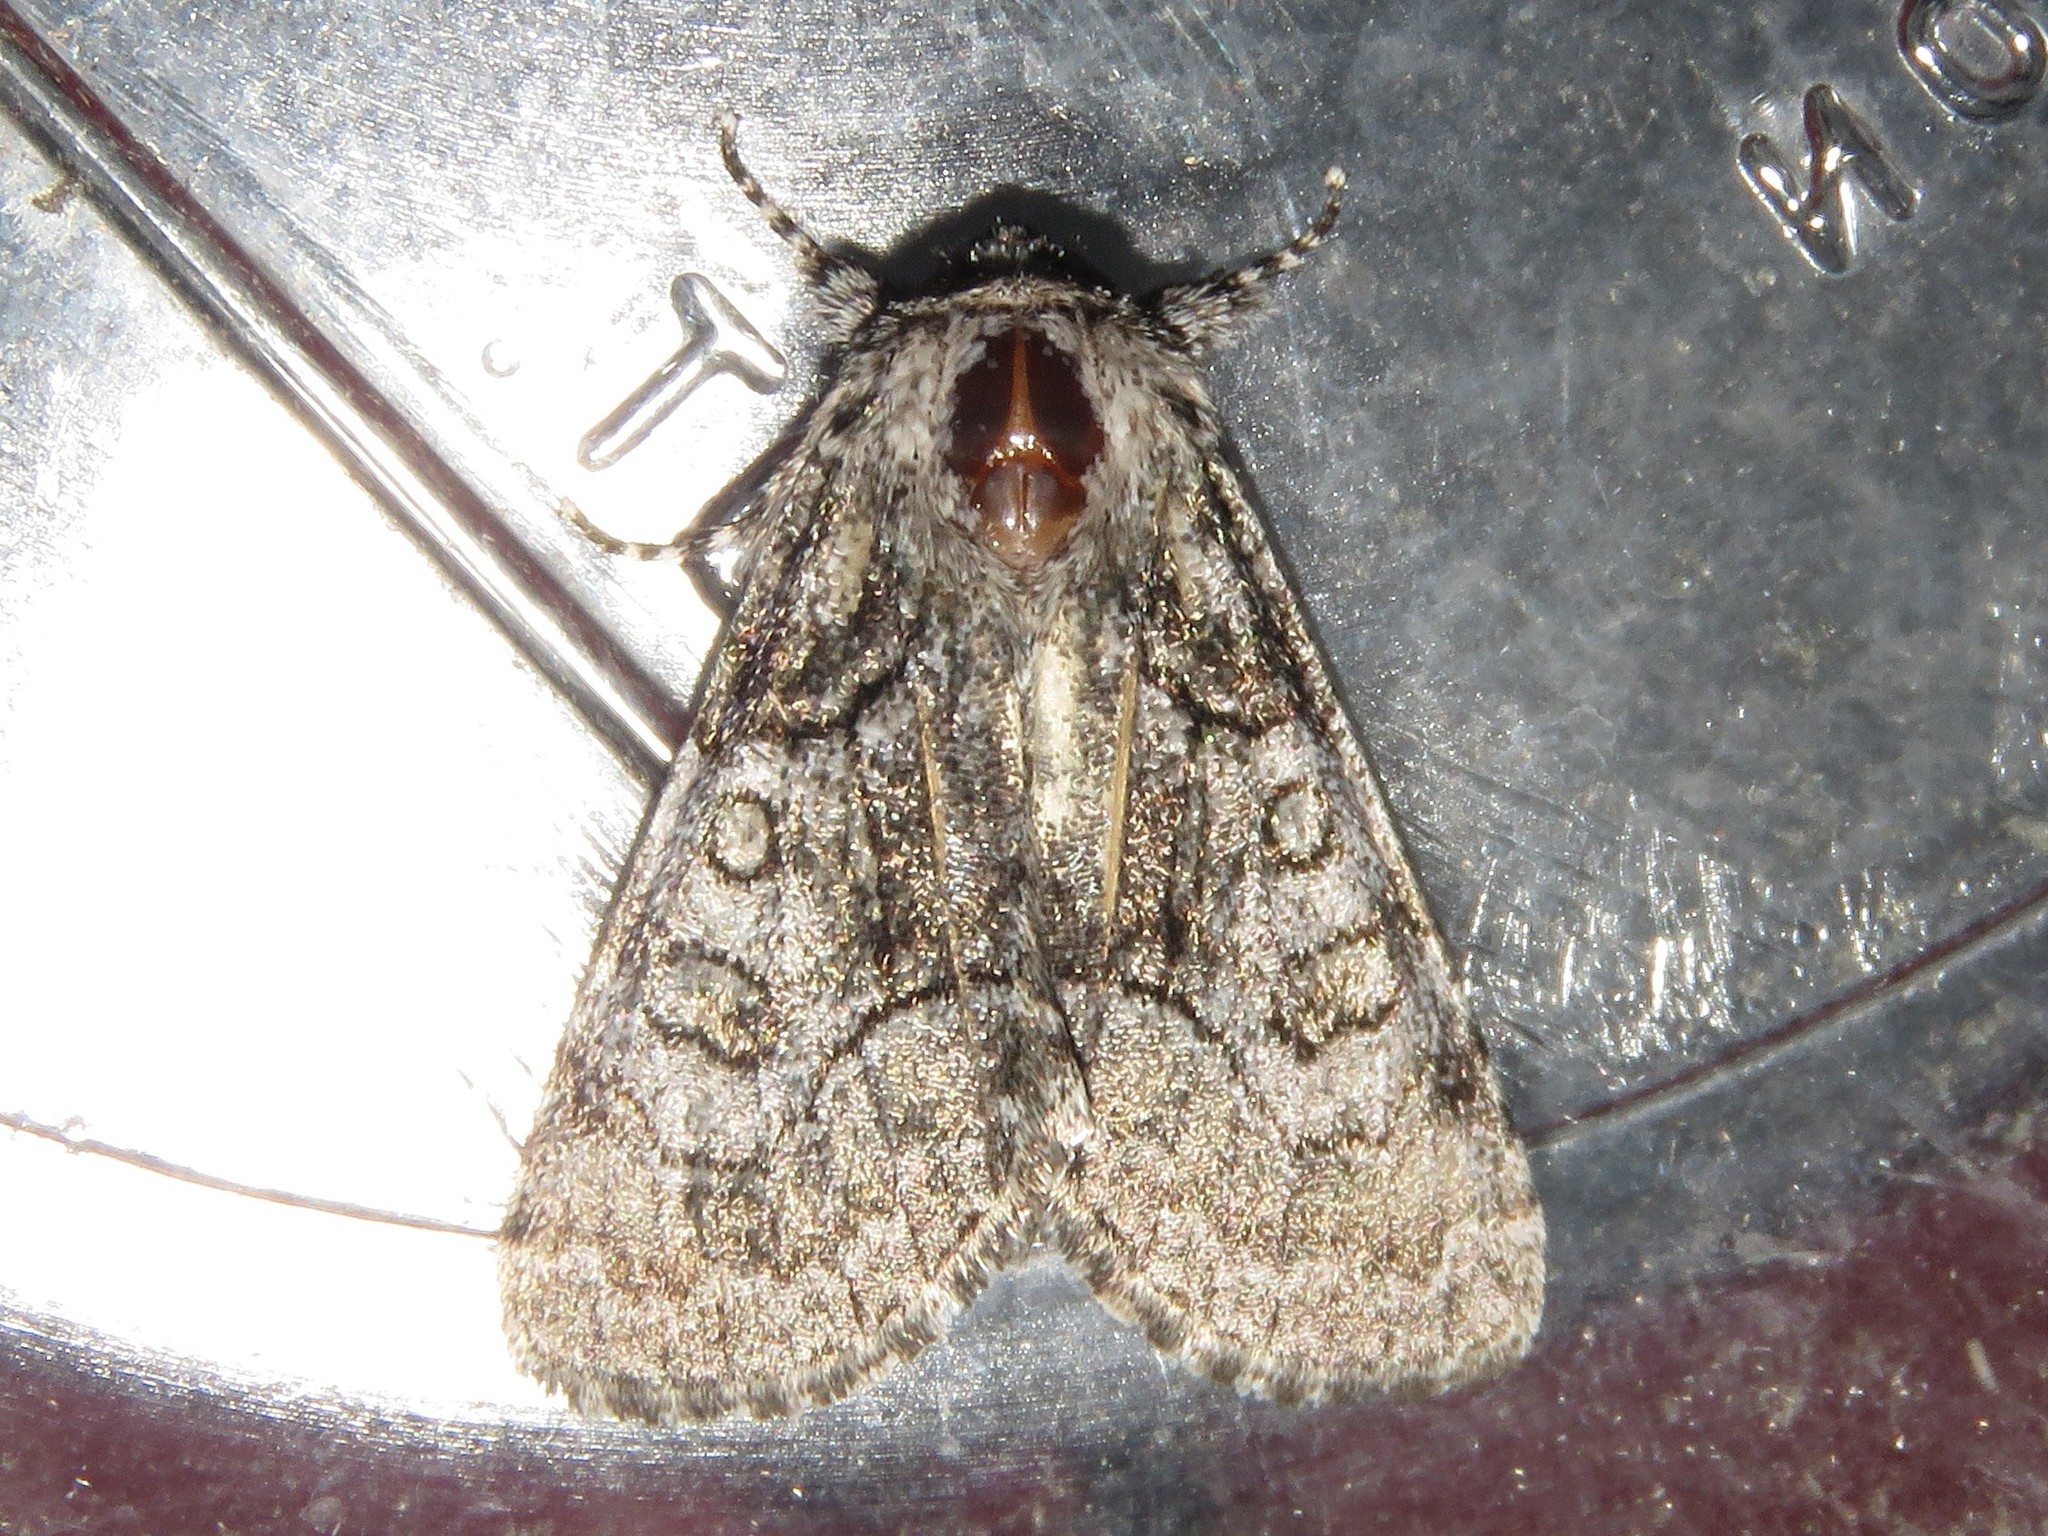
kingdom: Animalia
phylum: Arthropoda
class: Insecta
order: Lepidoptera
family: Noctuidae
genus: Raphia
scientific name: Raphia frater
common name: Brother
